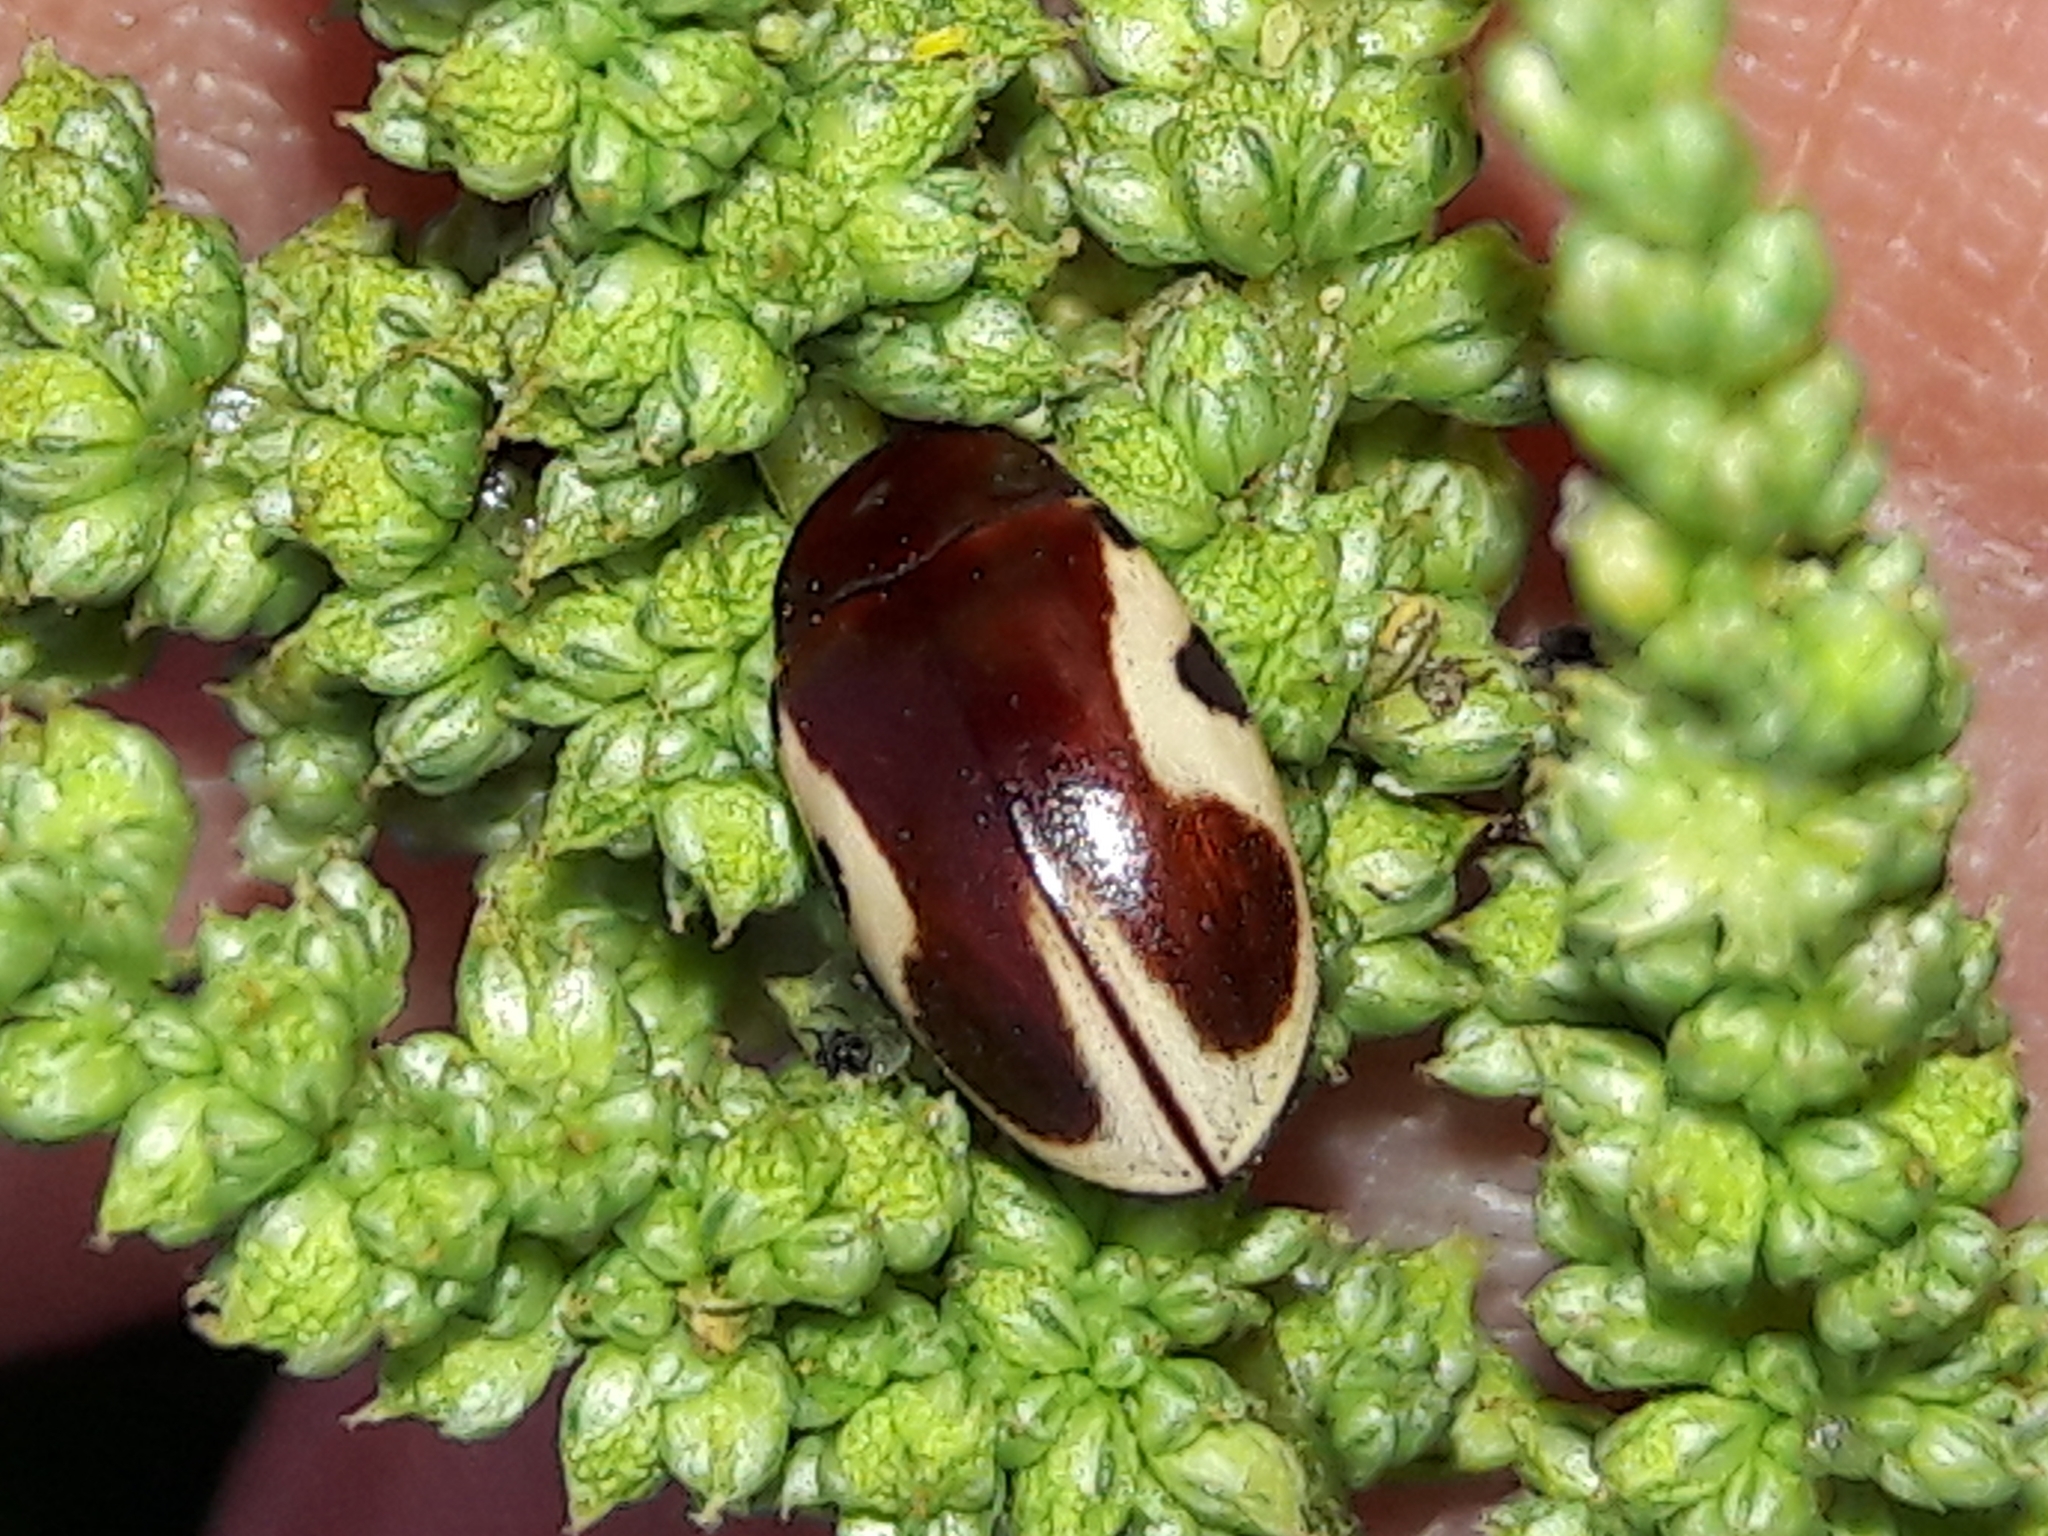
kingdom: Animalia
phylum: Arthropoda
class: Insecta
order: Coleoptera
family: Chelonariidae
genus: Chelonarium
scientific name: Chelonarium
